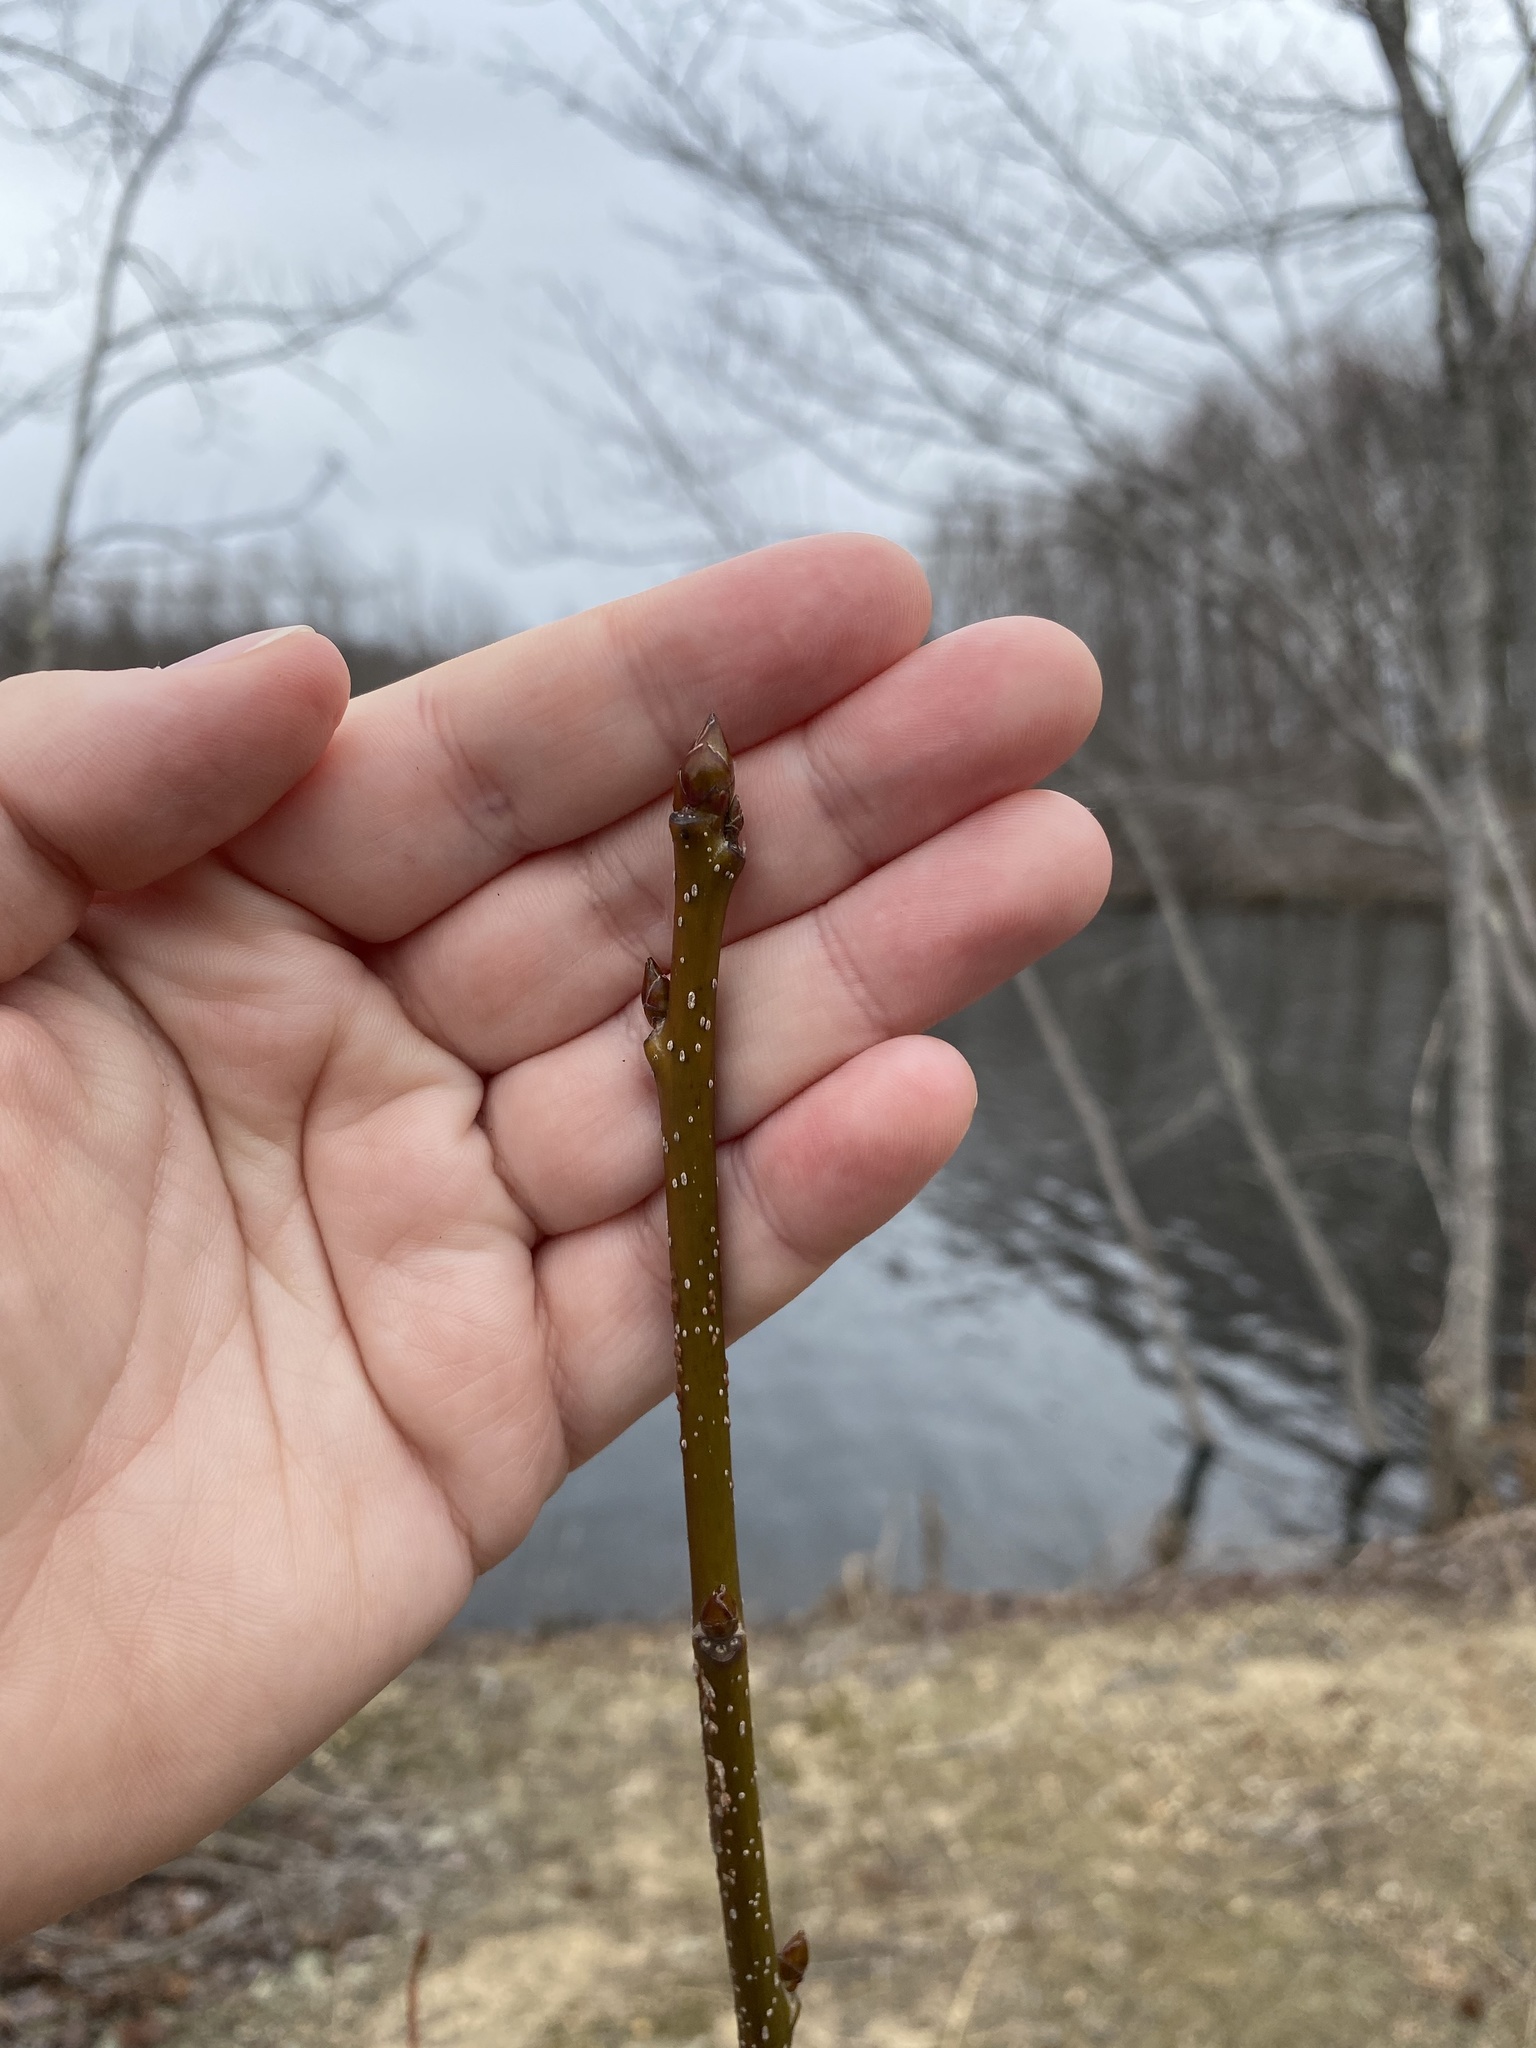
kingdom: Plantae
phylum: Tracheophyta
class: Magnoliopsida
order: Saxifragales
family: Altingiaceae
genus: Liquidambar
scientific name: Liquidambar styraciflua
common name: Sweet gum
